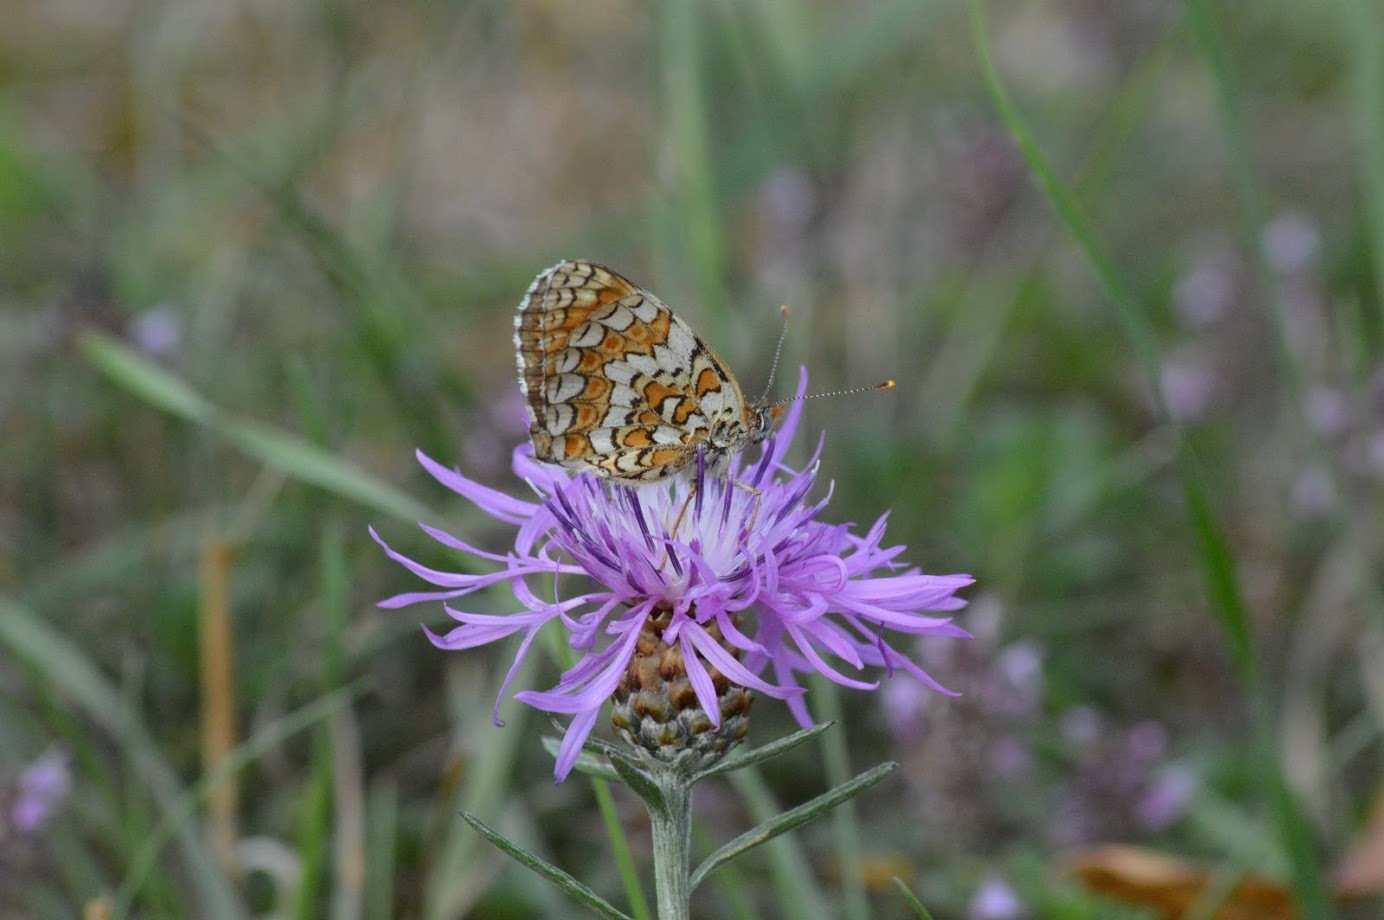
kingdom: Animalia
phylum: Arthropoda
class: Insecta
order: Lepidoptera
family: Nymphalidae
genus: Melitaea
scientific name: Melitaea phoebe
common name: Knapweed fritillary
